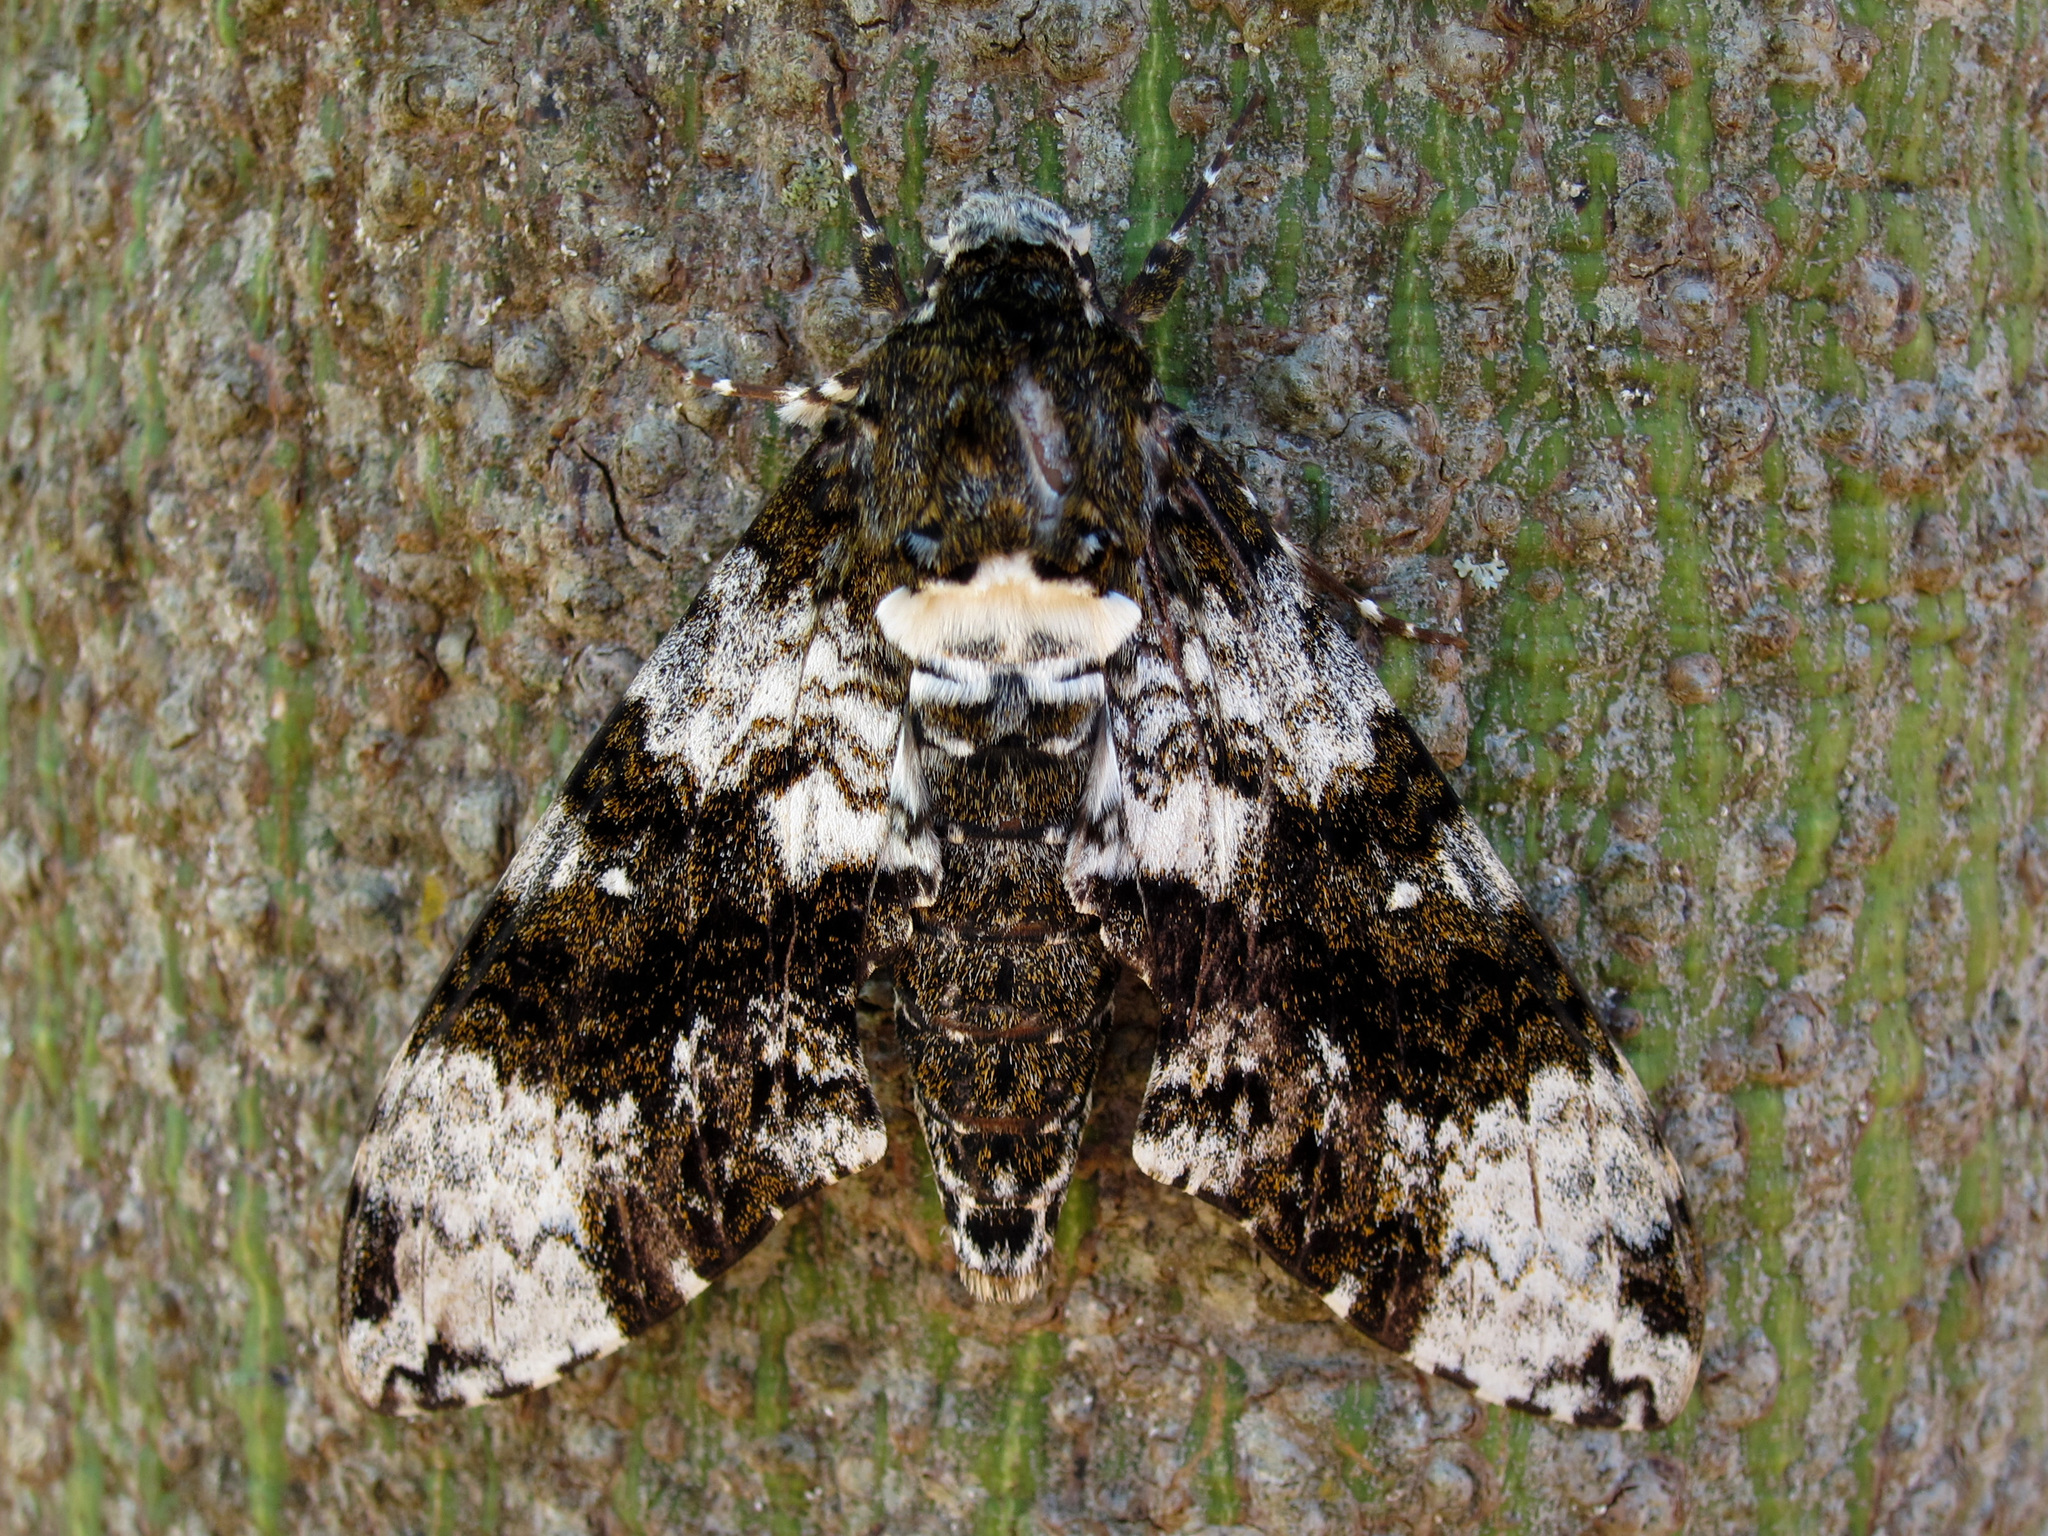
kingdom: Animalia
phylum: Arthropoda
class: Insecta
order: Lepidoptera
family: Sphingidae
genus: Manduca
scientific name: Manduca albiplaga
